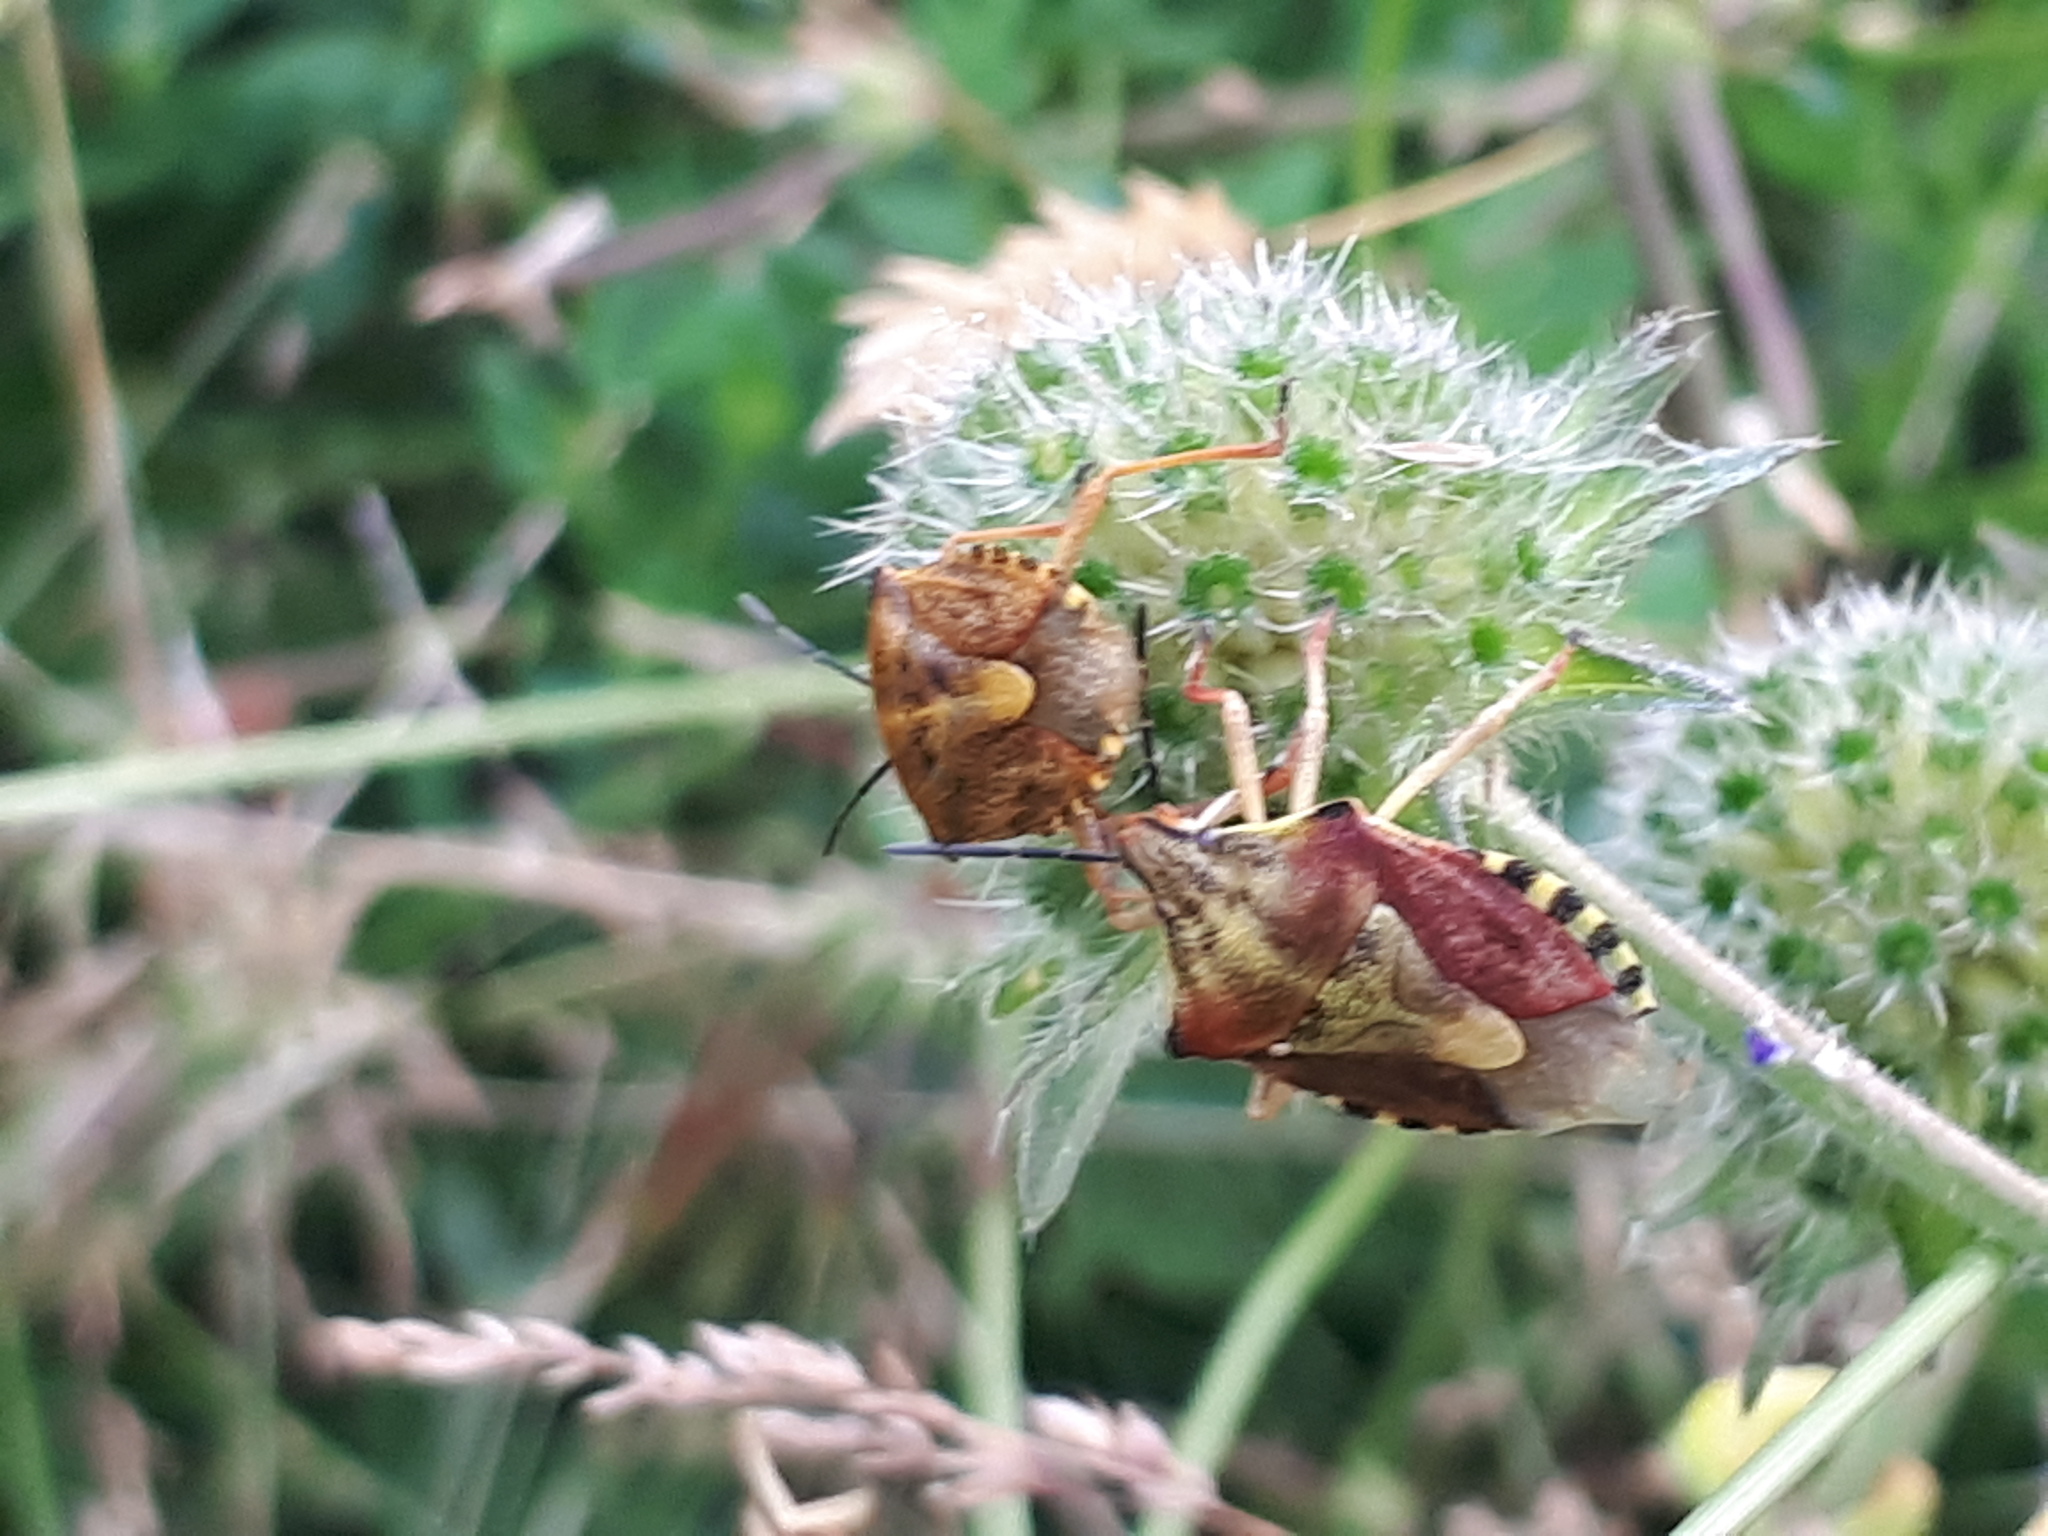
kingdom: Animalia
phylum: Arthropoda
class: Insecta
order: Hemiptera
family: Pentatomidae
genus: Carpocoris
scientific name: Carpocoris purpureipennis
